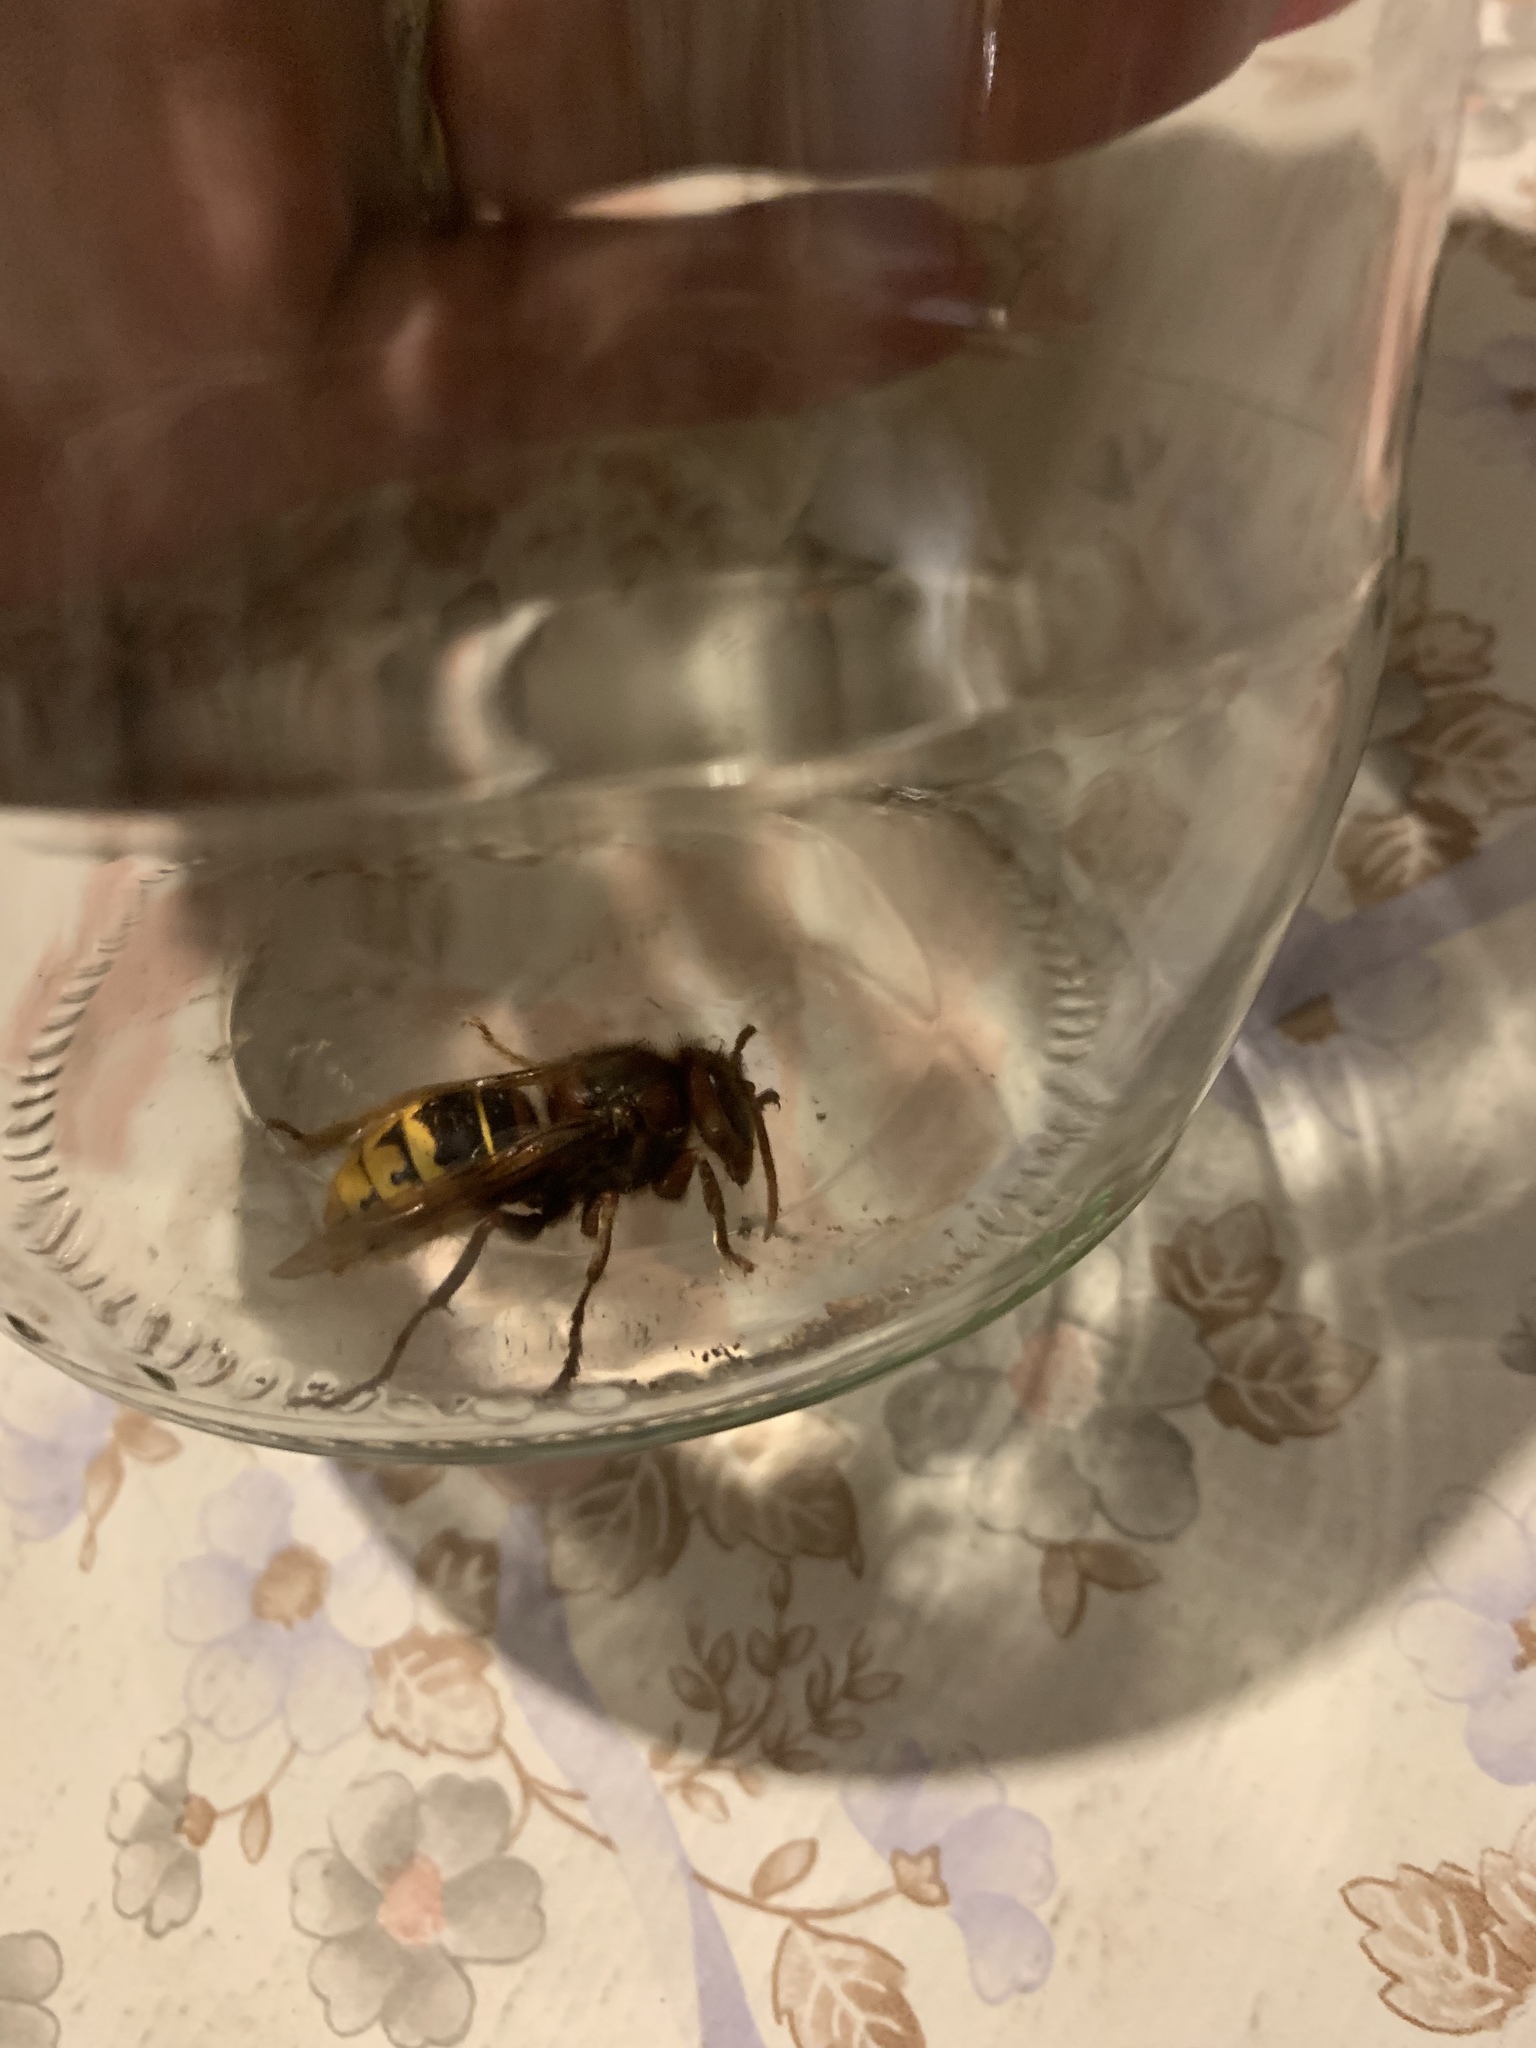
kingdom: Animalia
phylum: Arthropoda
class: Insecta
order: Hymenoptera
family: Vespidae
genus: Vespa
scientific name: Vespa crabro
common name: Hornet
